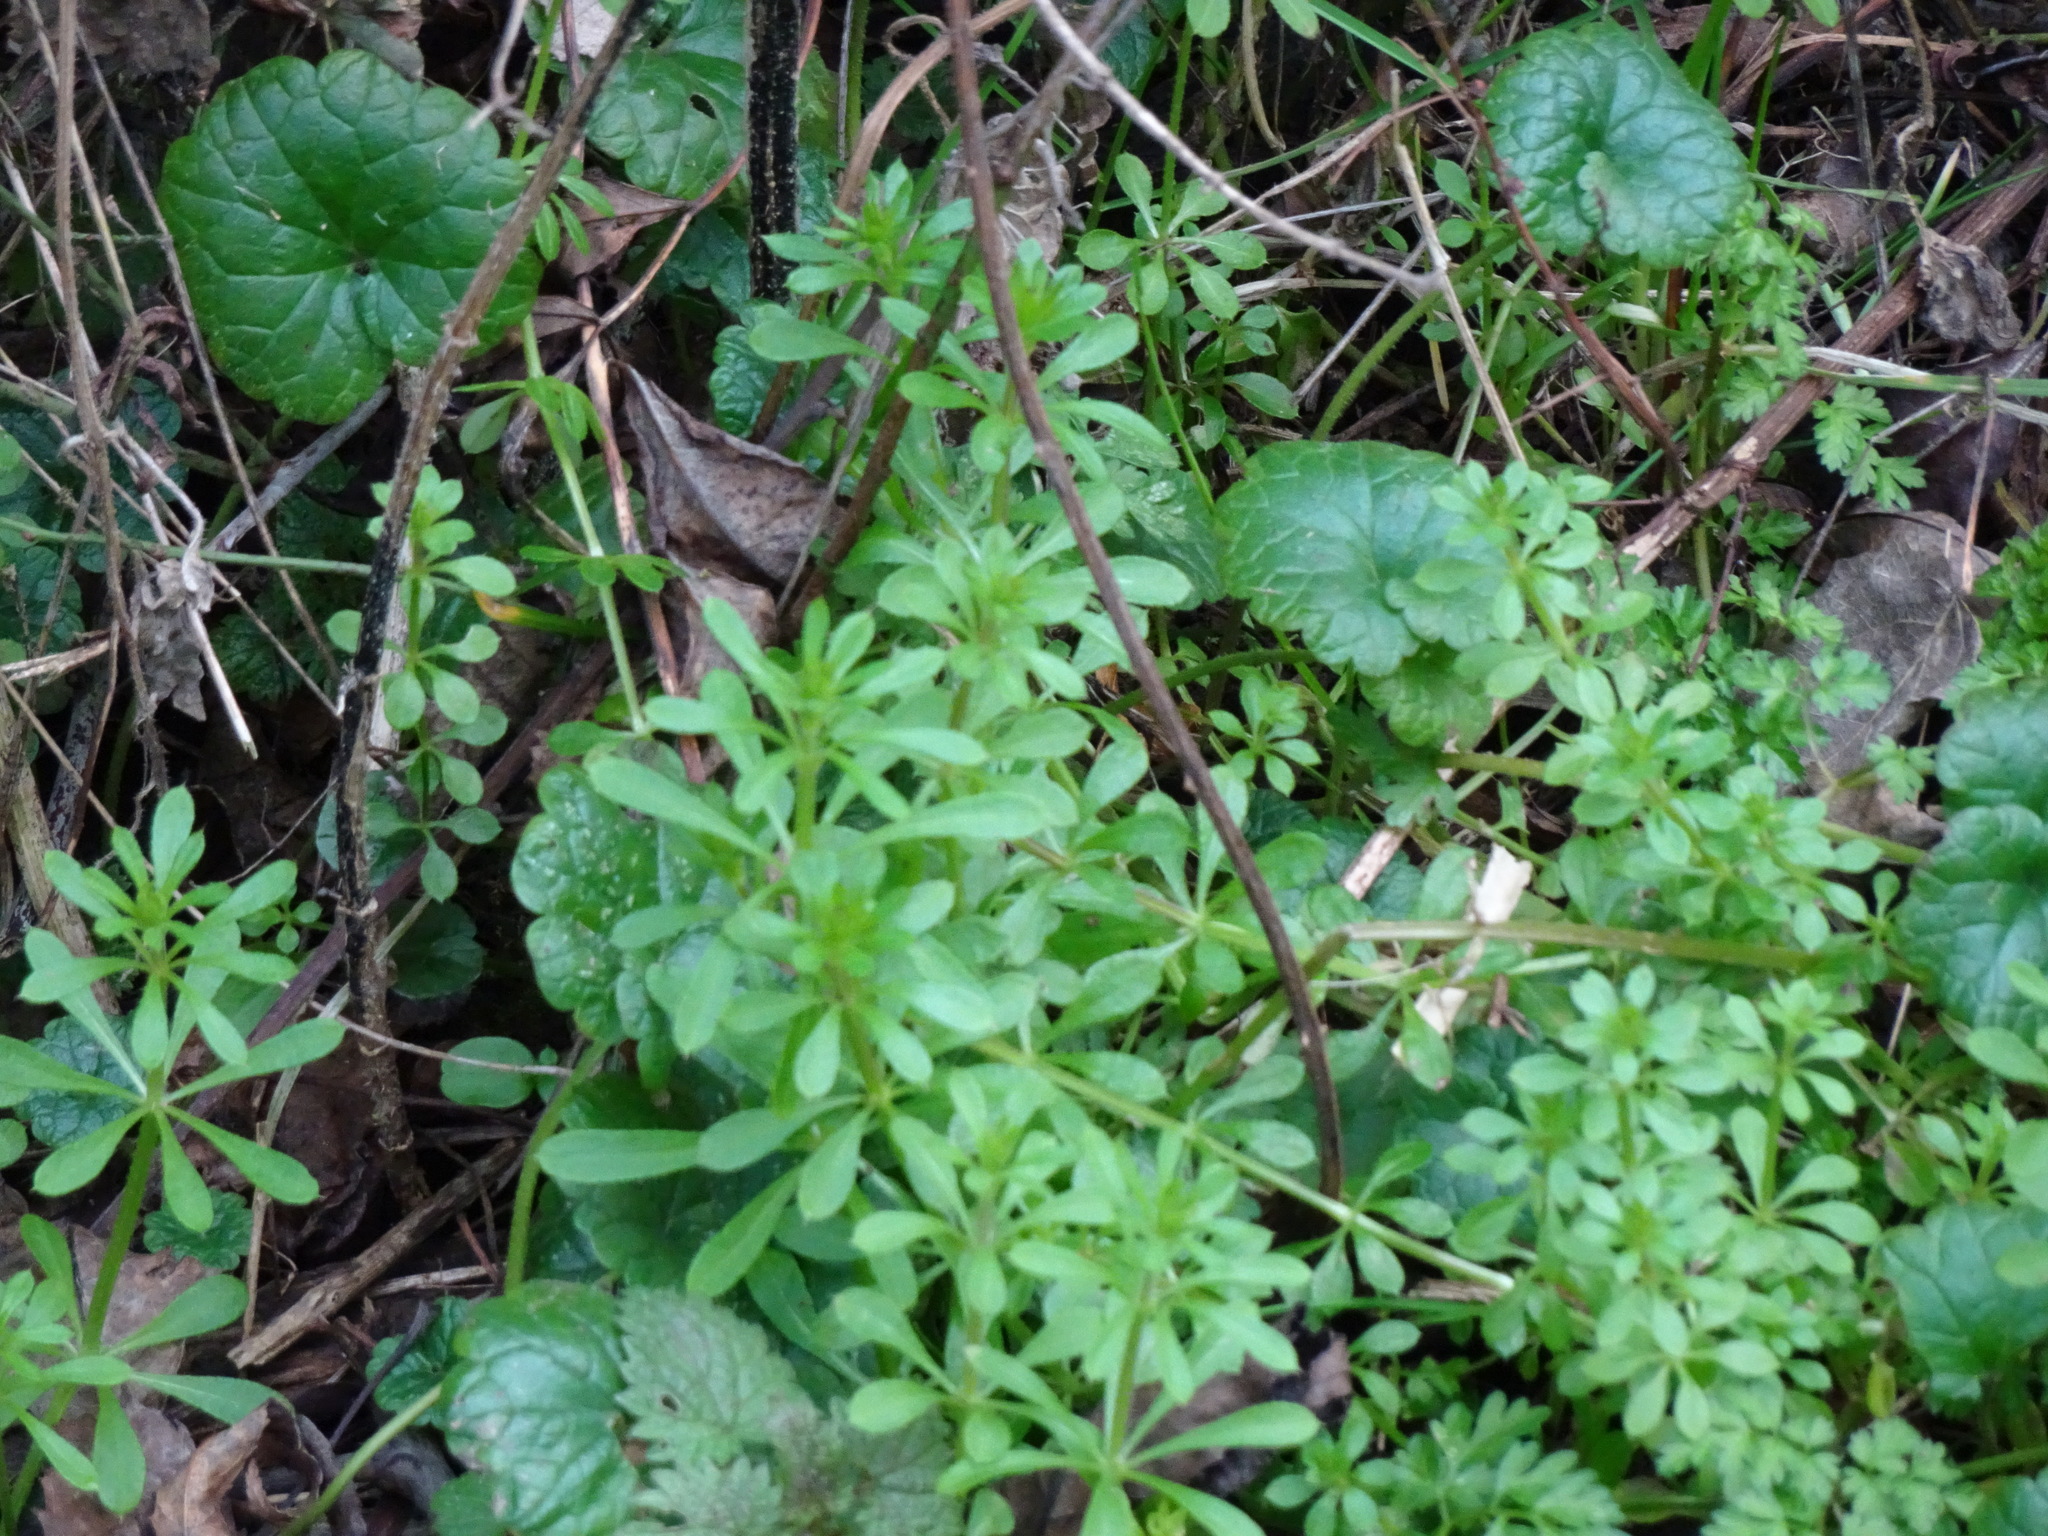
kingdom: Plantae
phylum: Tracheophyta
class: Magnoliopsida
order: Gentianales
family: Rubiaceae
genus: Galium
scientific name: Galium aparine
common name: Cleavers
